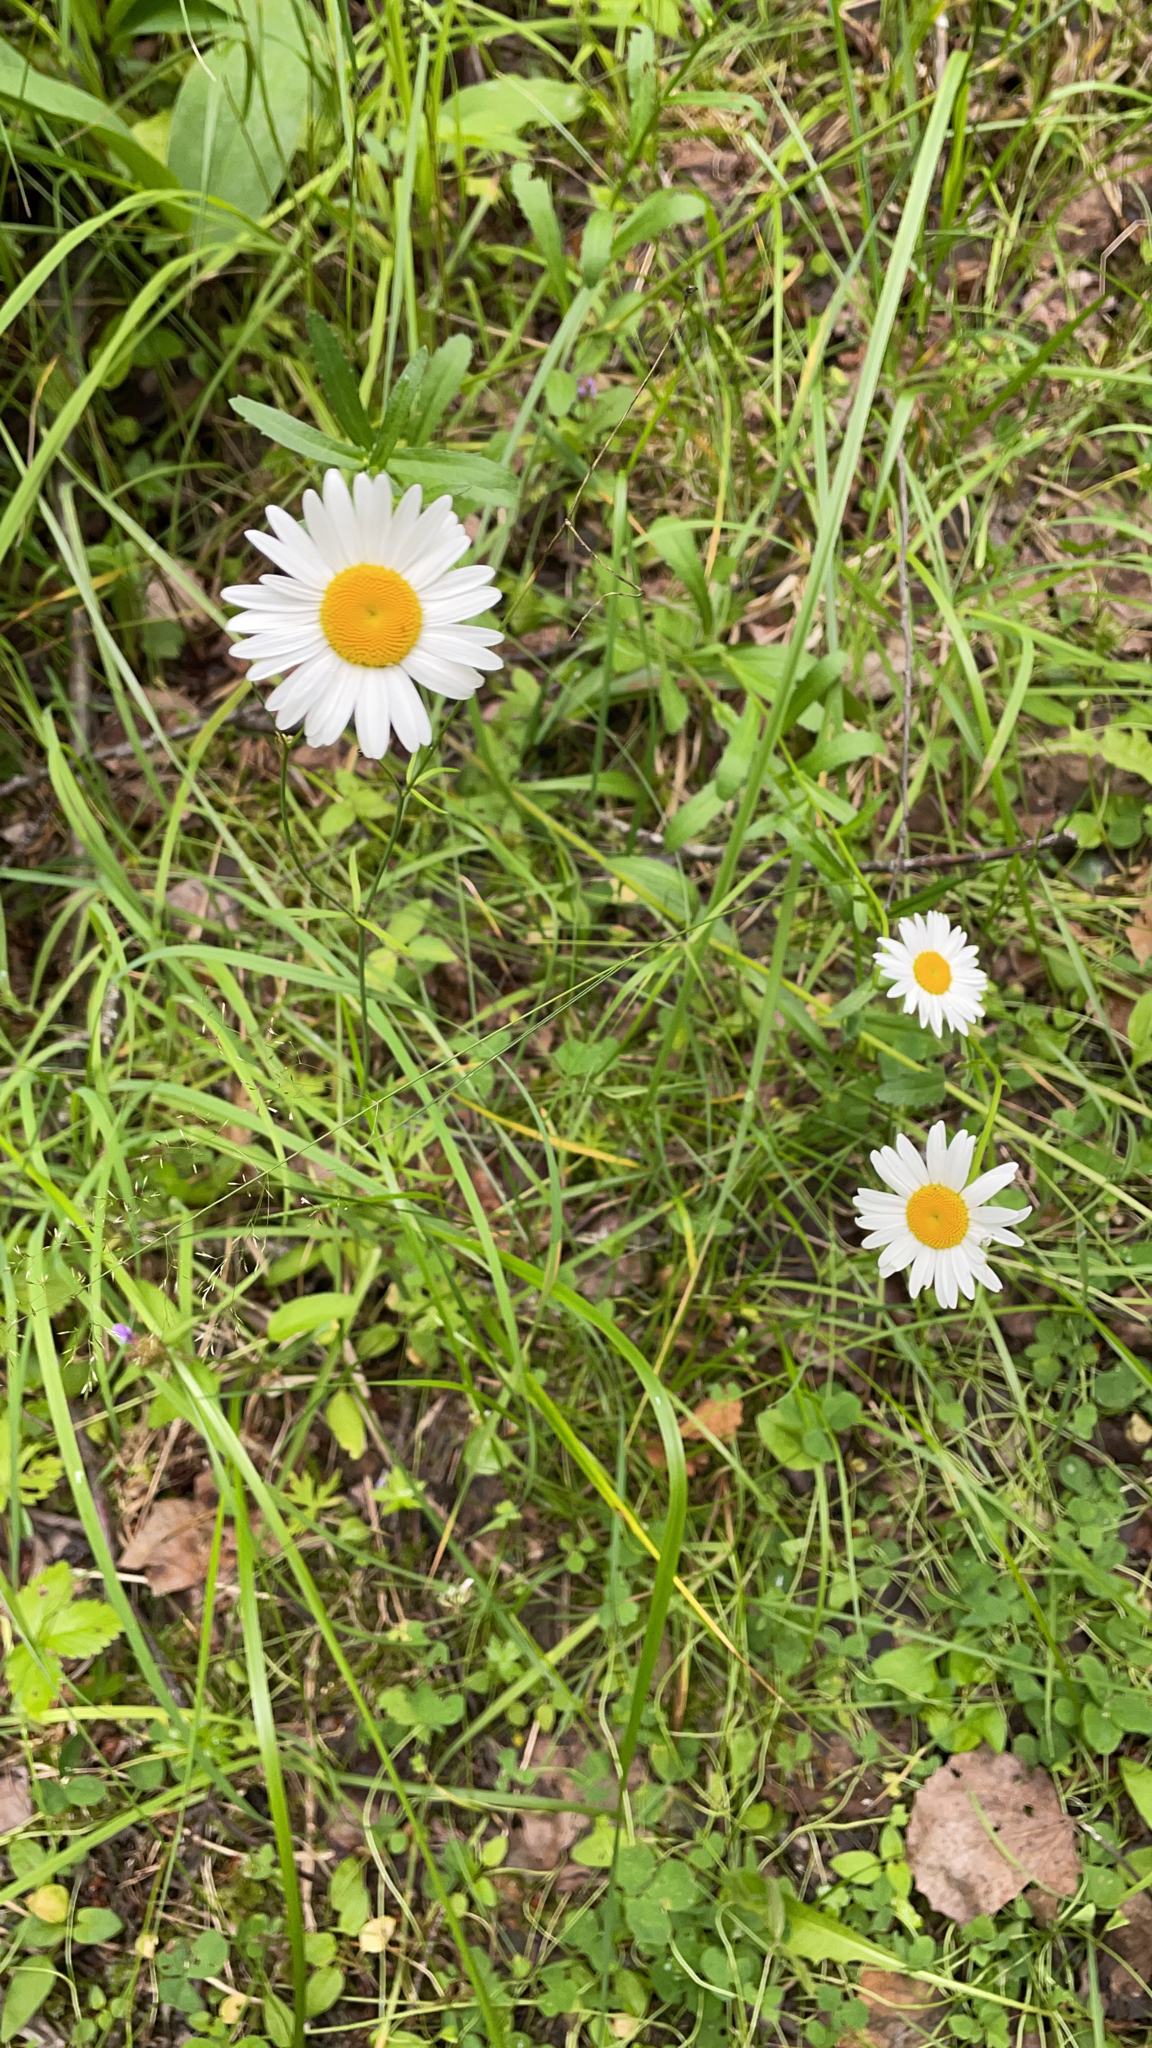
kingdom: Plantae
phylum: Tracheophyta
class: Magnoliopsida
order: Asterales
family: Asteraceae
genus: Leucanthemum
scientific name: Leucanthemum vulgare
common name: Oxeye daisy
